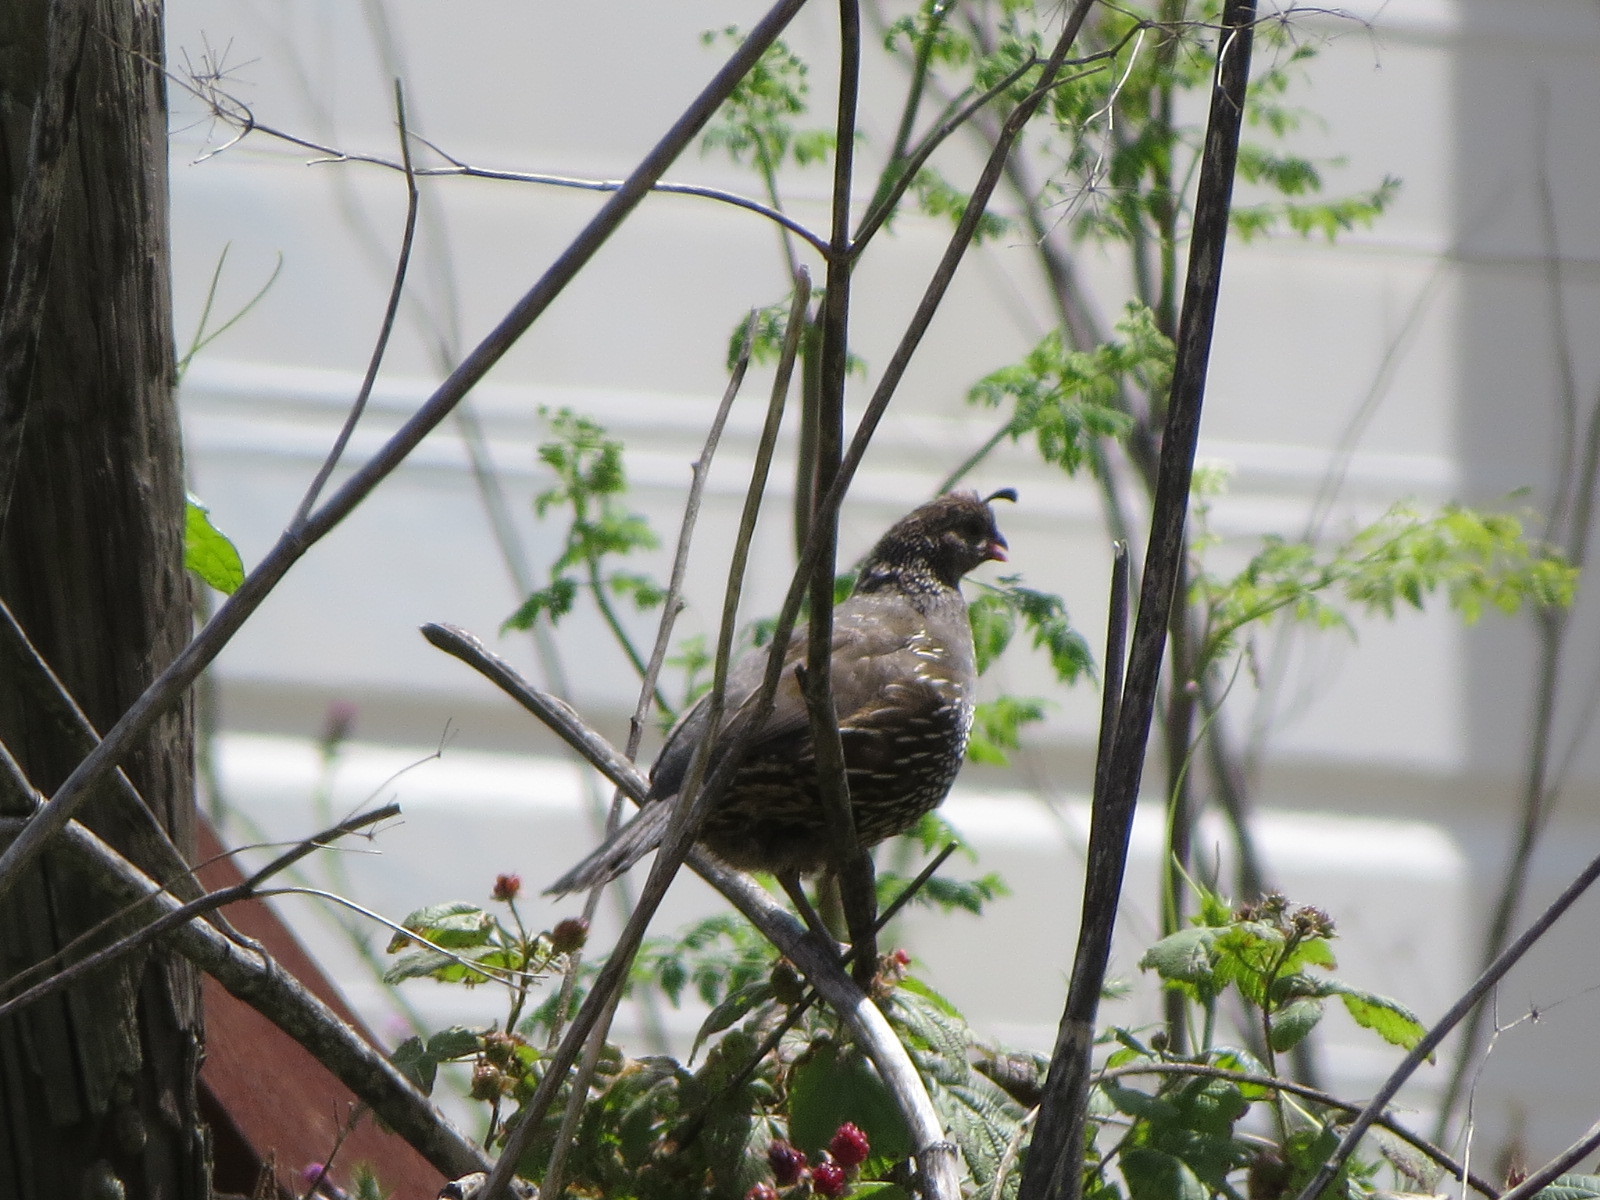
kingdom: Animalia
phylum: Chordata
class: Aves
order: Galliformes
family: Odontophoridae
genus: Callipepla
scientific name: Callipepla californica
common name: California quail
